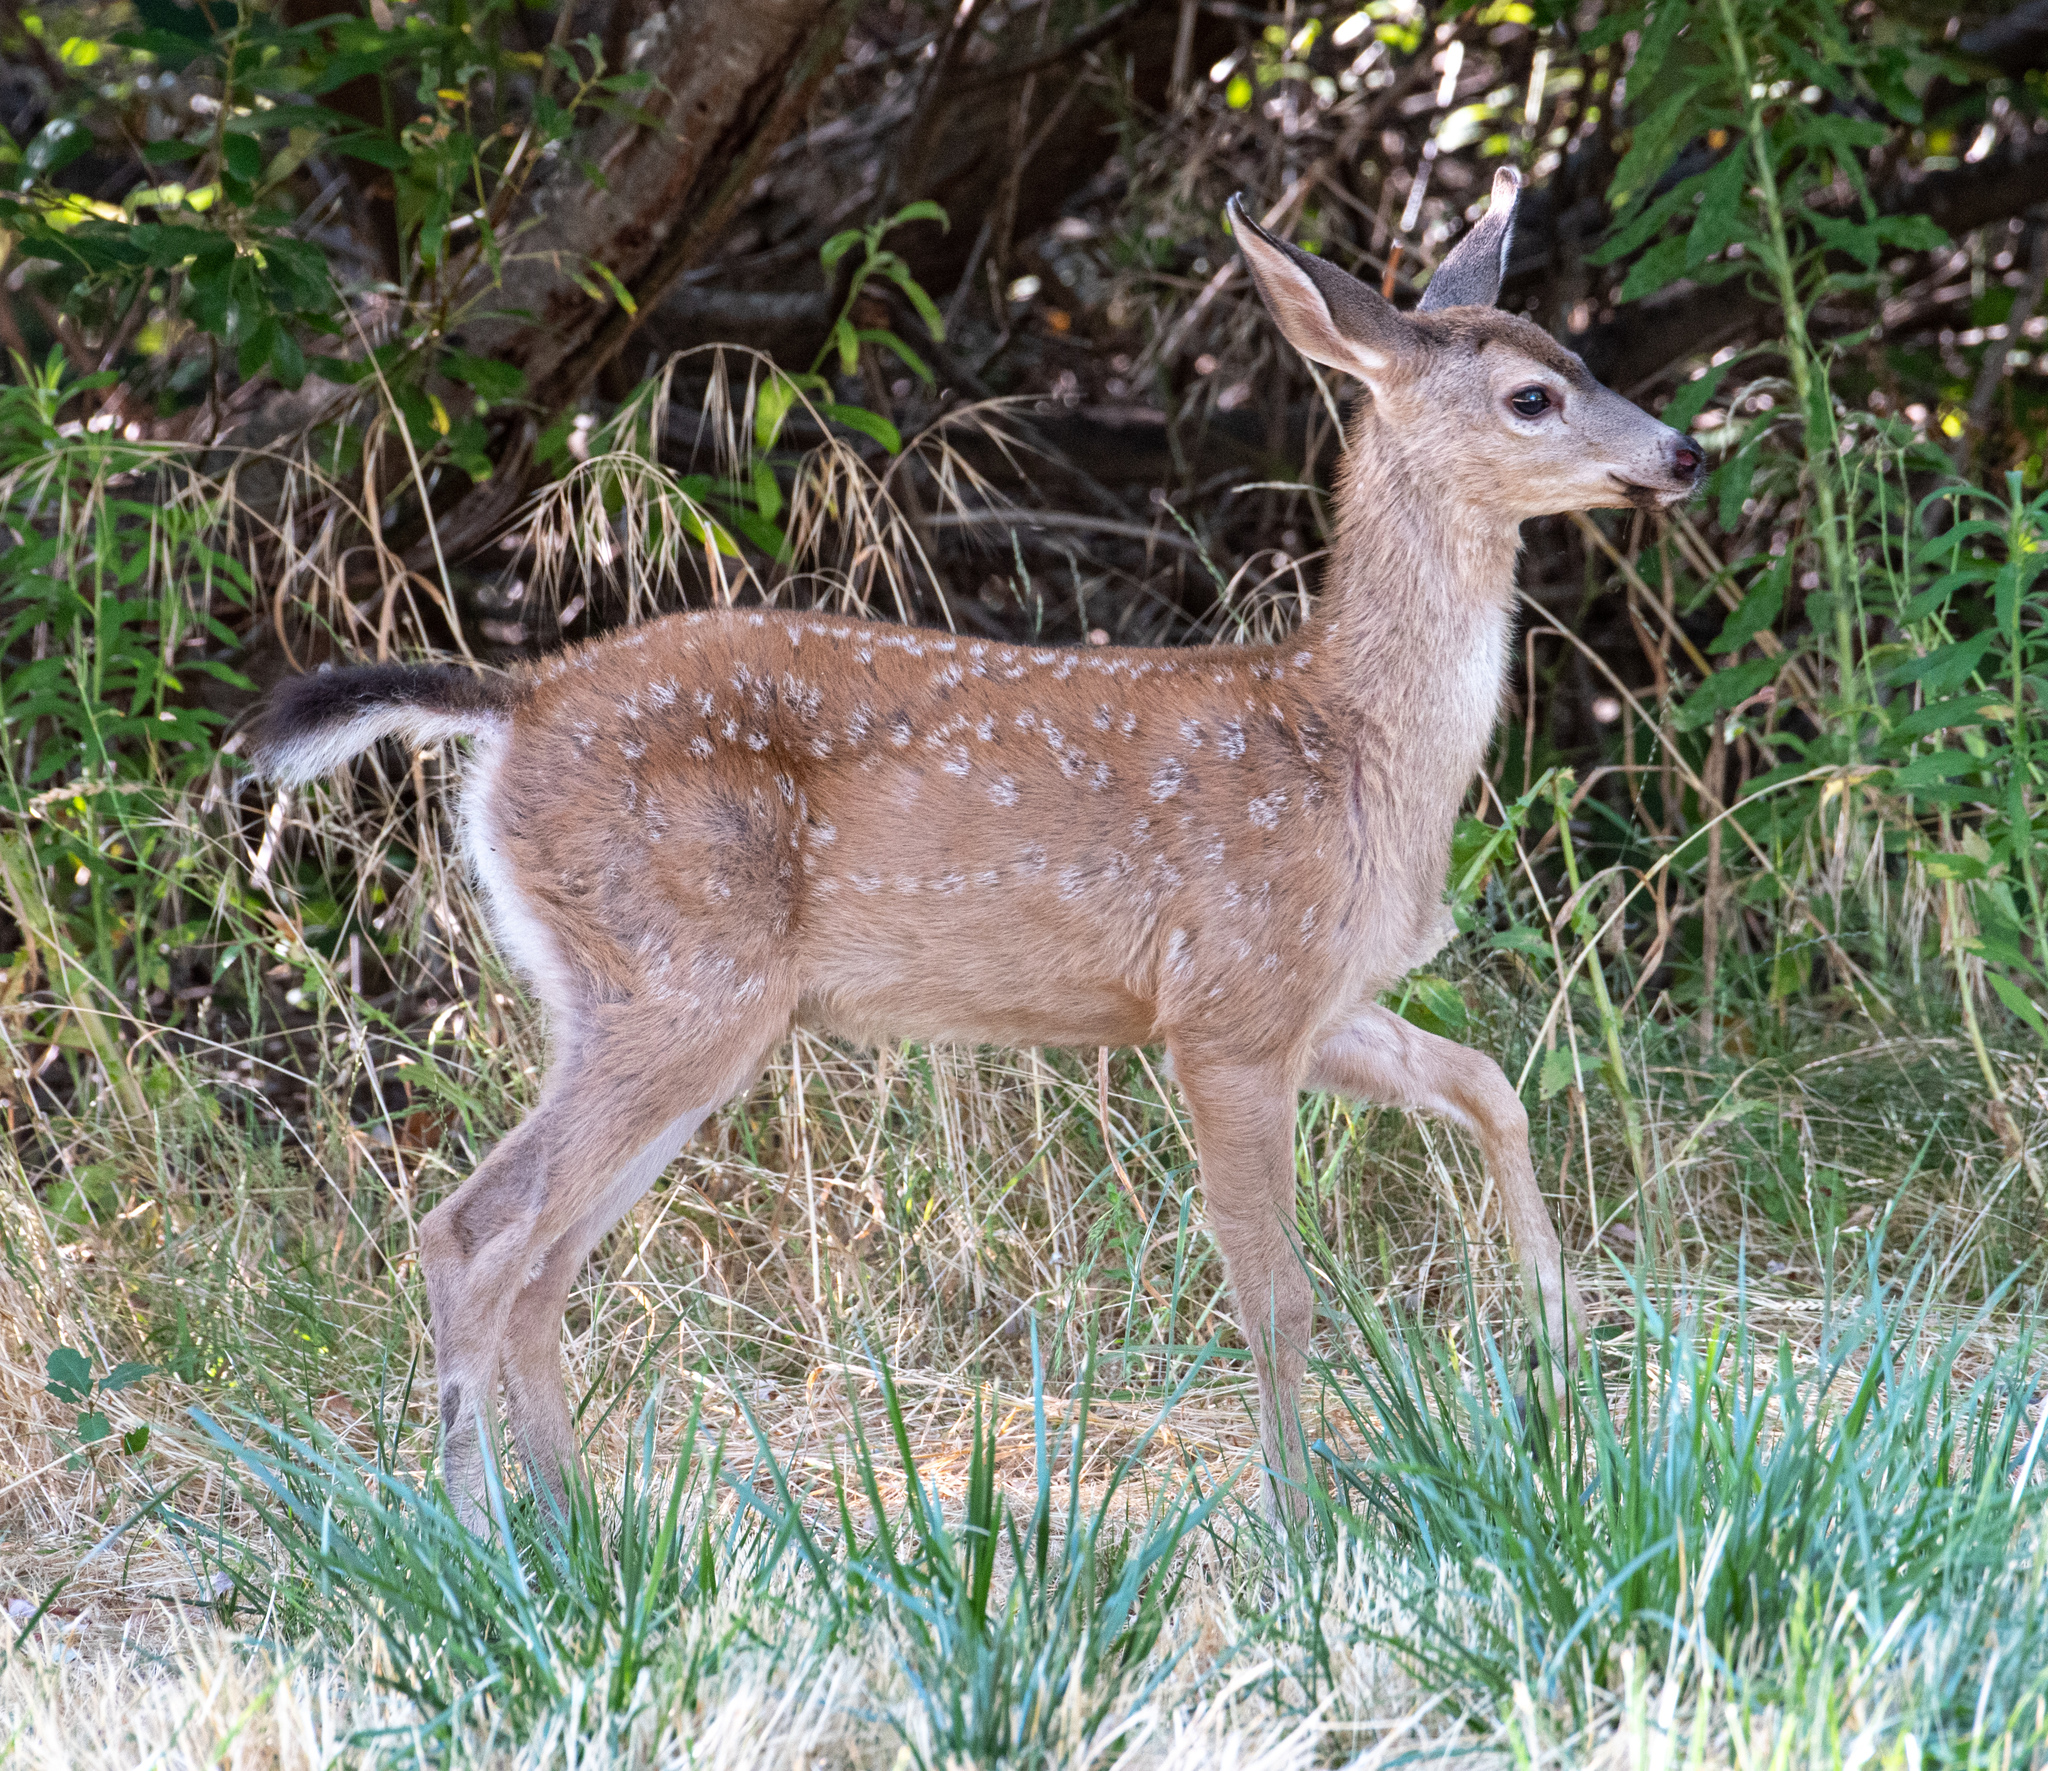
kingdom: Animalia
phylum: Chordata
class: Mammalia
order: Artiodactyla
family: Cervidae
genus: Odocoileus
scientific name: Odocoileus hemionus
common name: Mule deer
